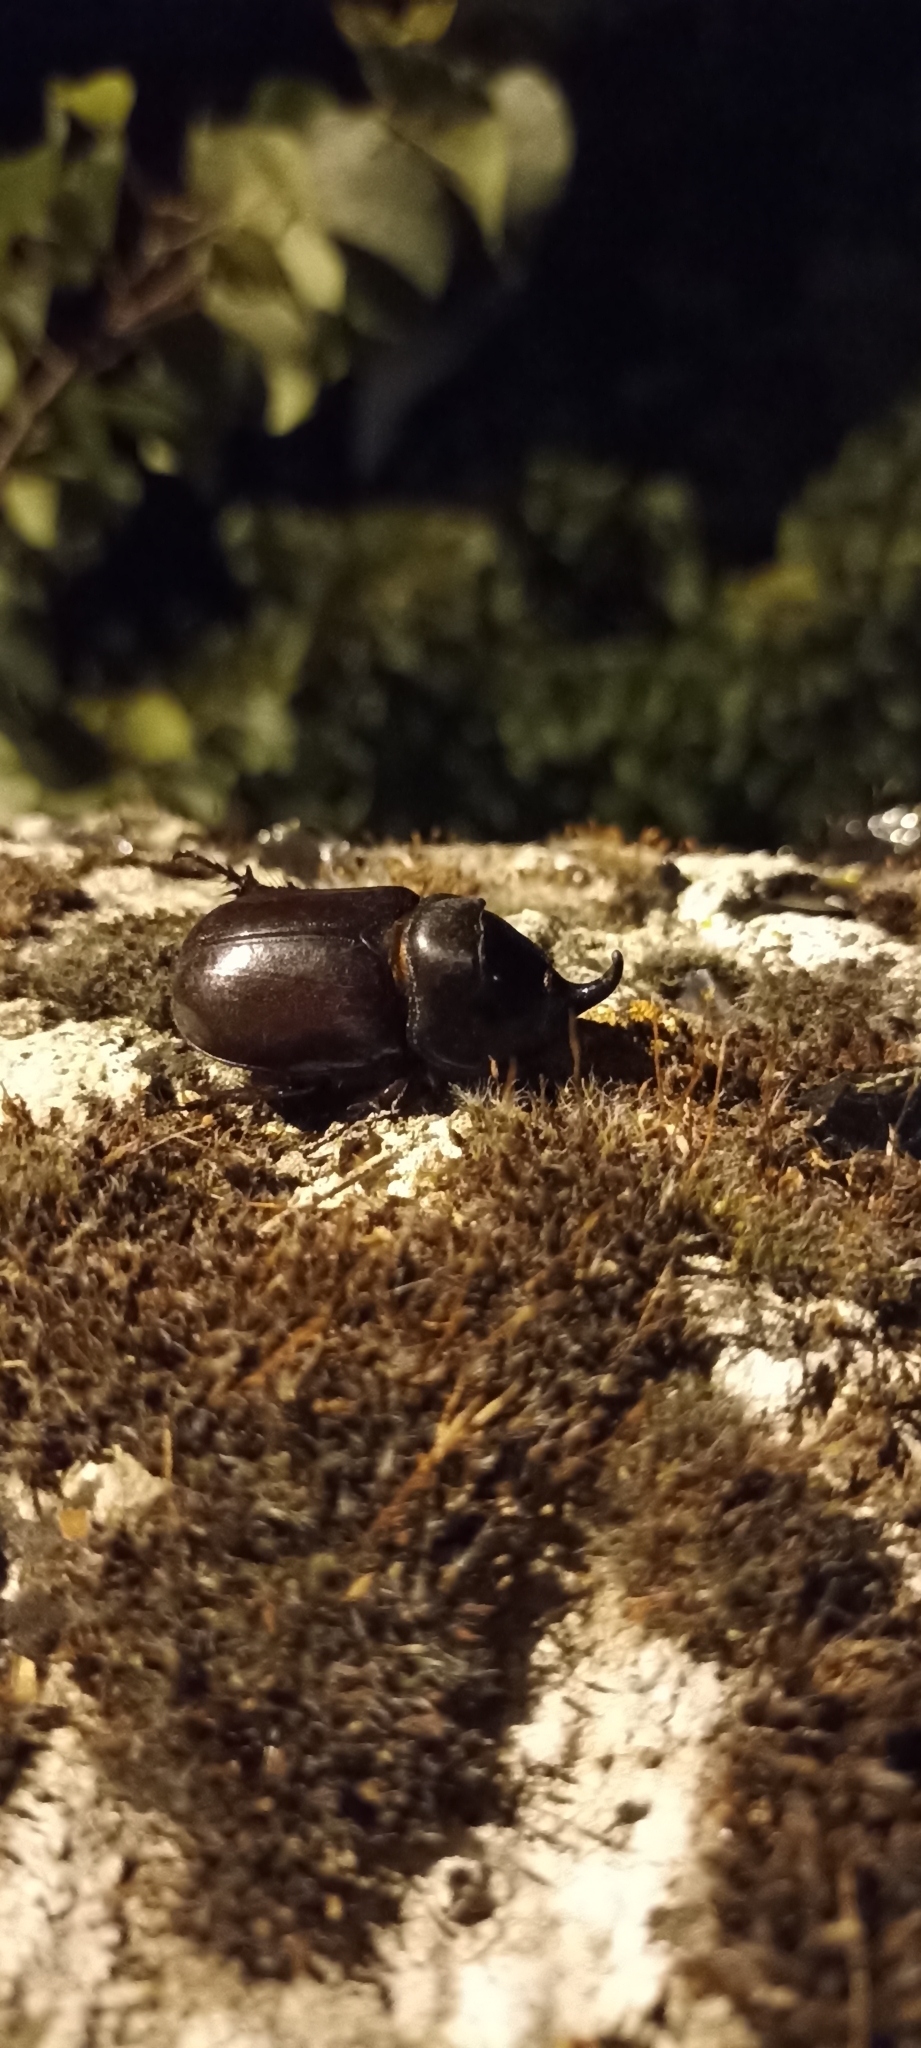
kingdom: Animalia
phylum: Arthropoda
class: Insecta
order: Coleoptera
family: Scarabaeidae
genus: Oryctes
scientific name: Oryctes nasicornis
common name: European rhinoceros beetle
